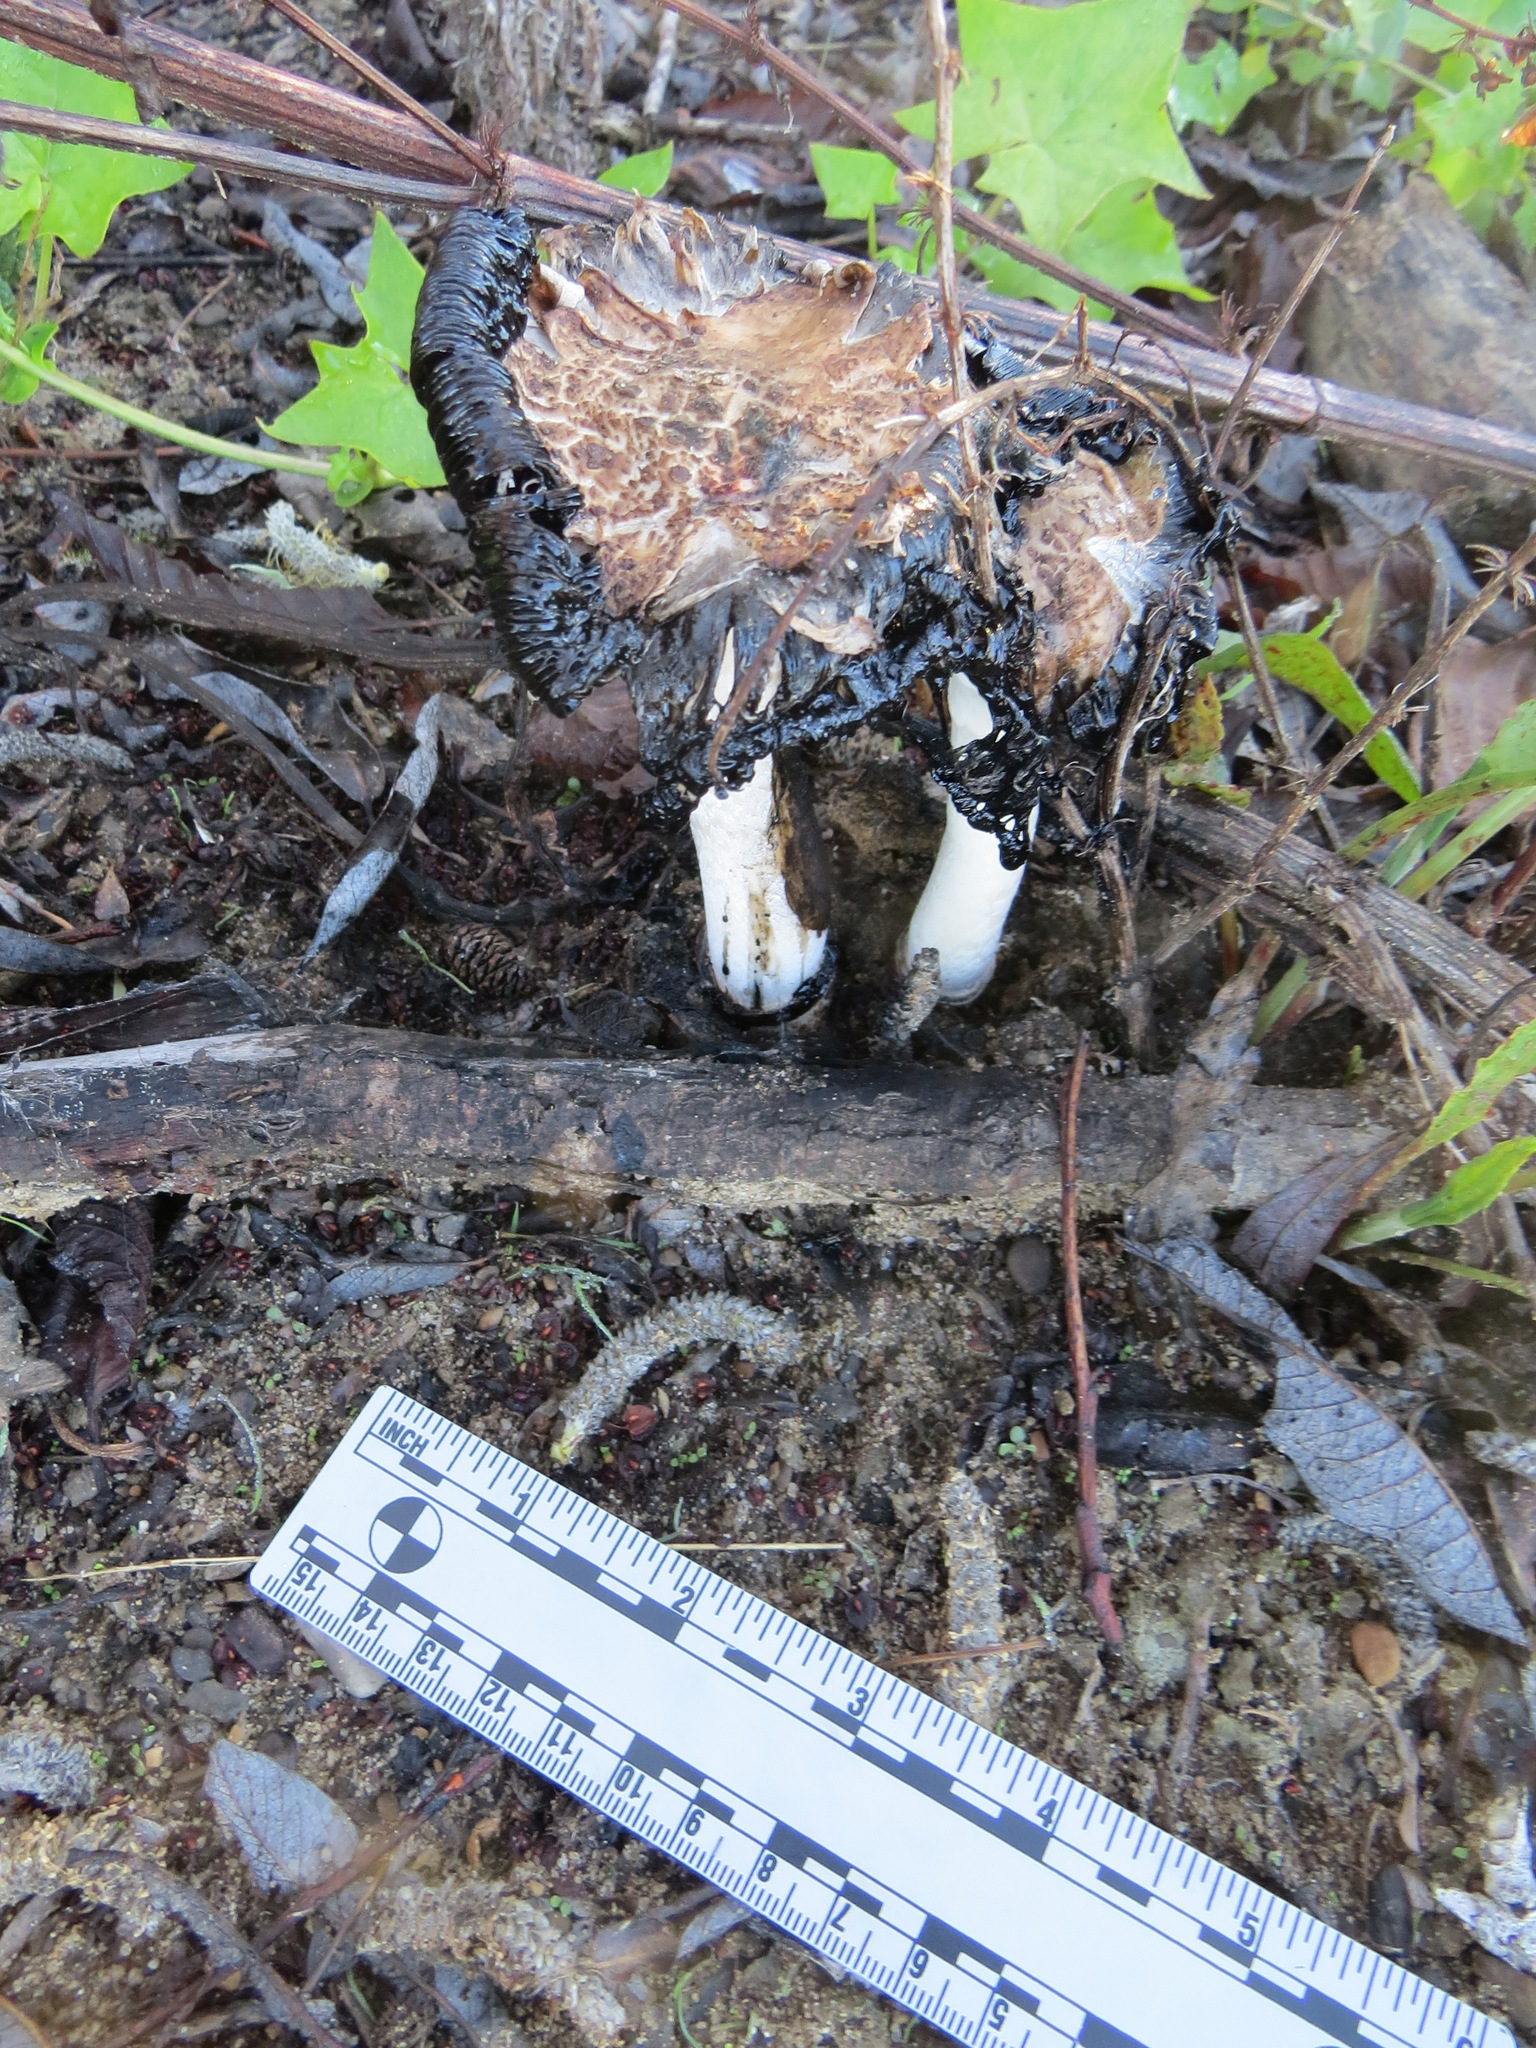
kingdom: Fungi
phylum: Basidiomycota
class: Agaricomycetes
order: Agaricales
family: Agaricaceae
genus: Coprinus
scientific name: Coprinus comatus
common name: Lawyer's wig
